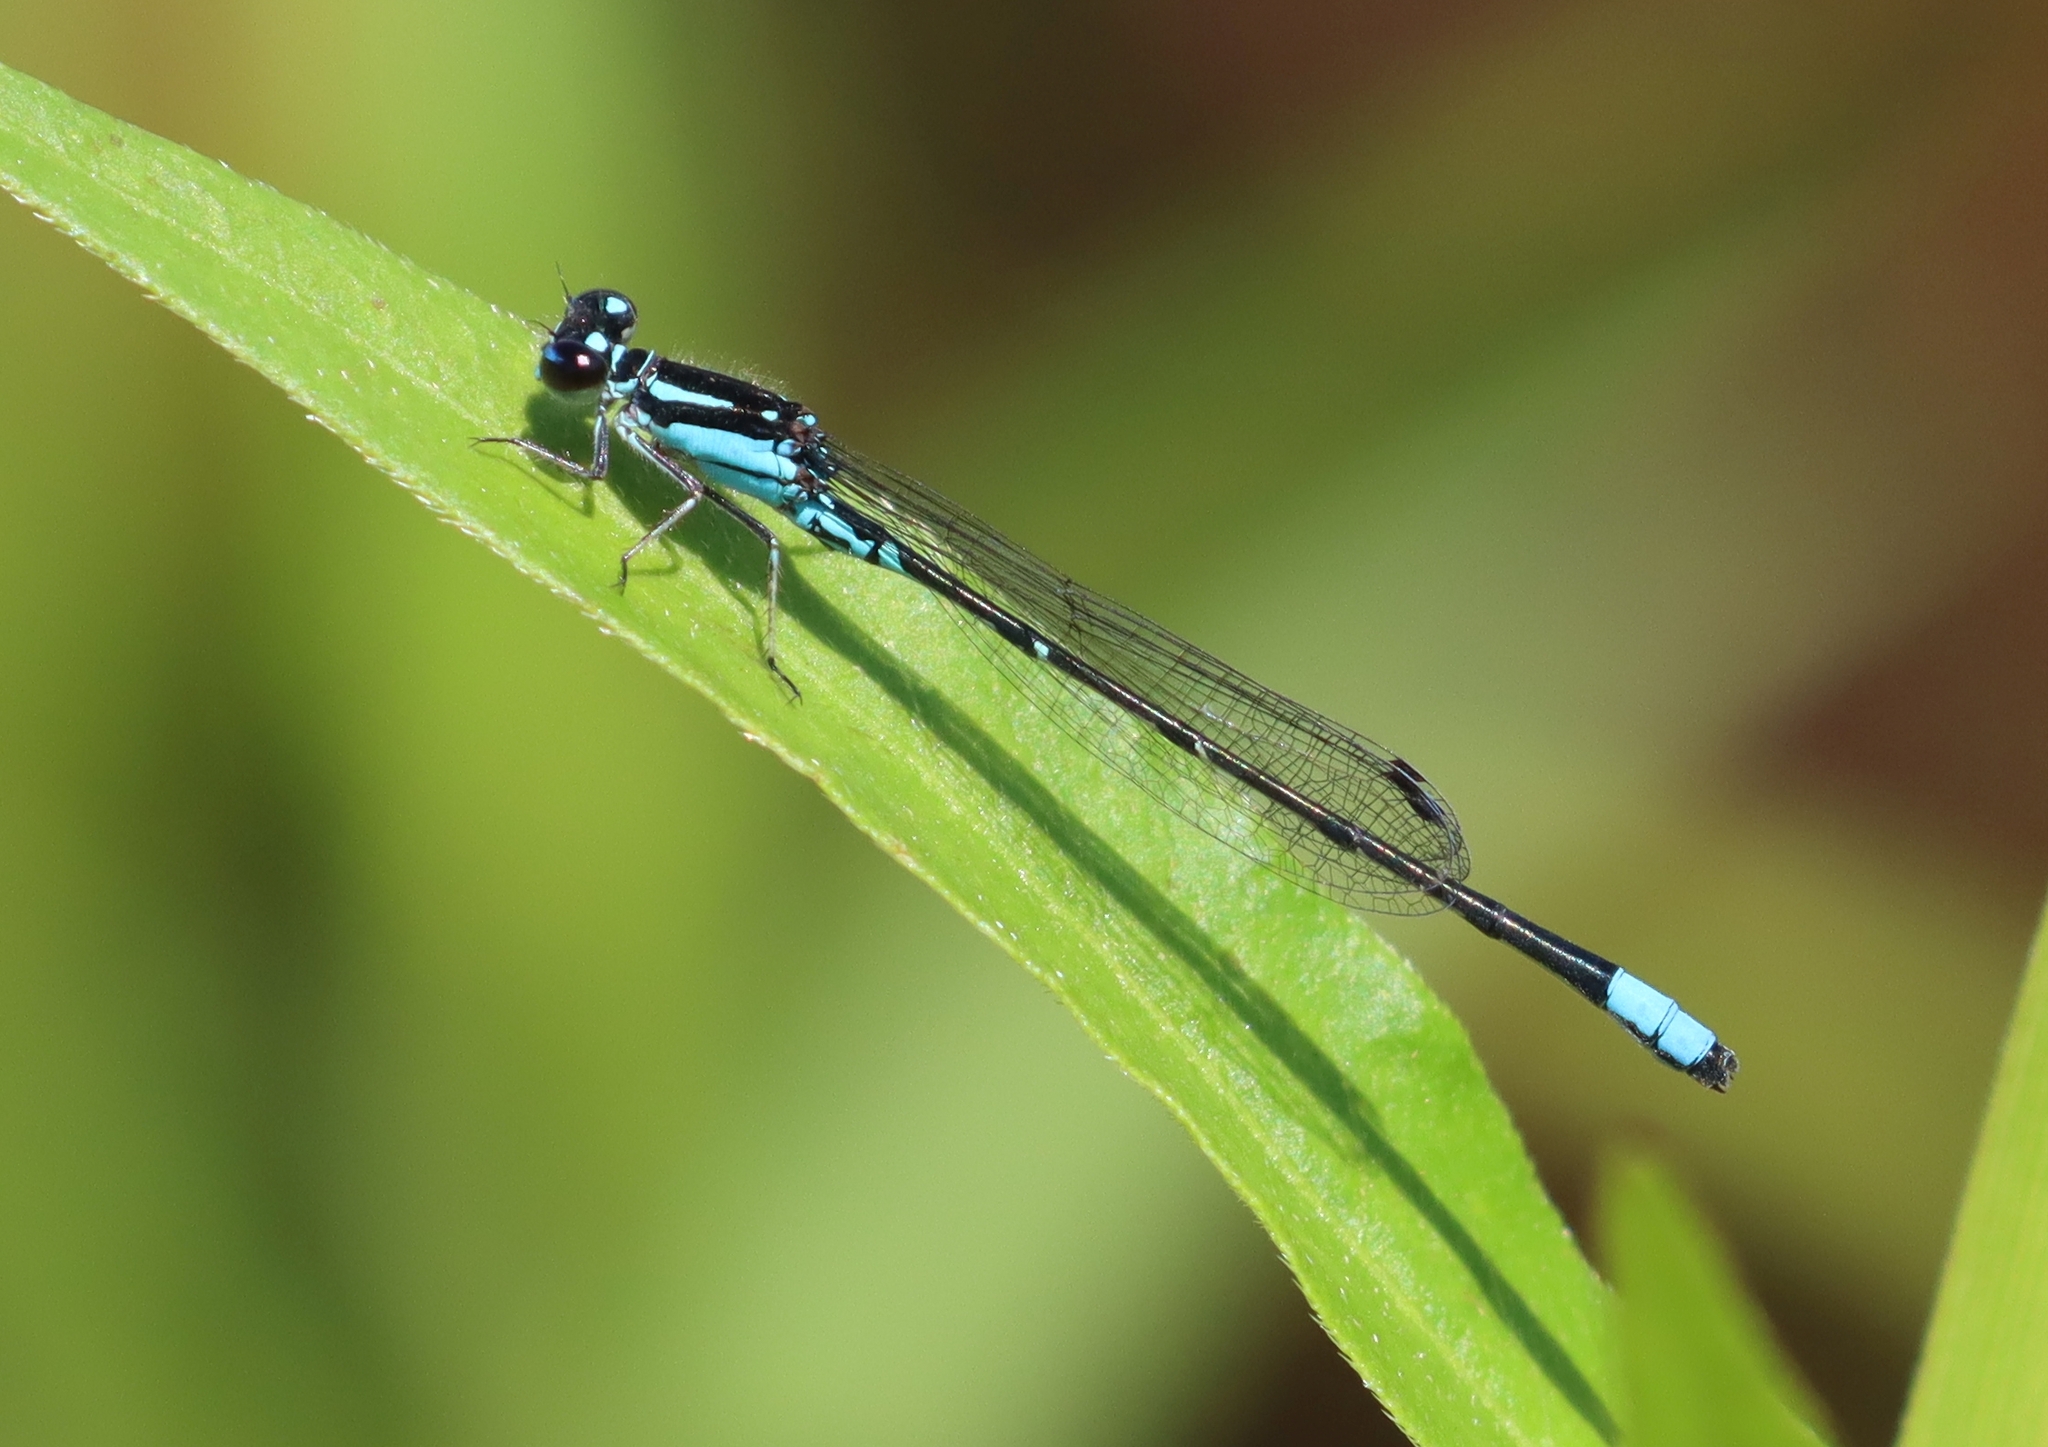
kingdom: Animalia
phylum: Arthropoda
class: Insecta
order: Odonata
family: Coenagrionidae
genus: Enallagma
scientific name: Enallagma geminatum
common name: Skimming bluet
